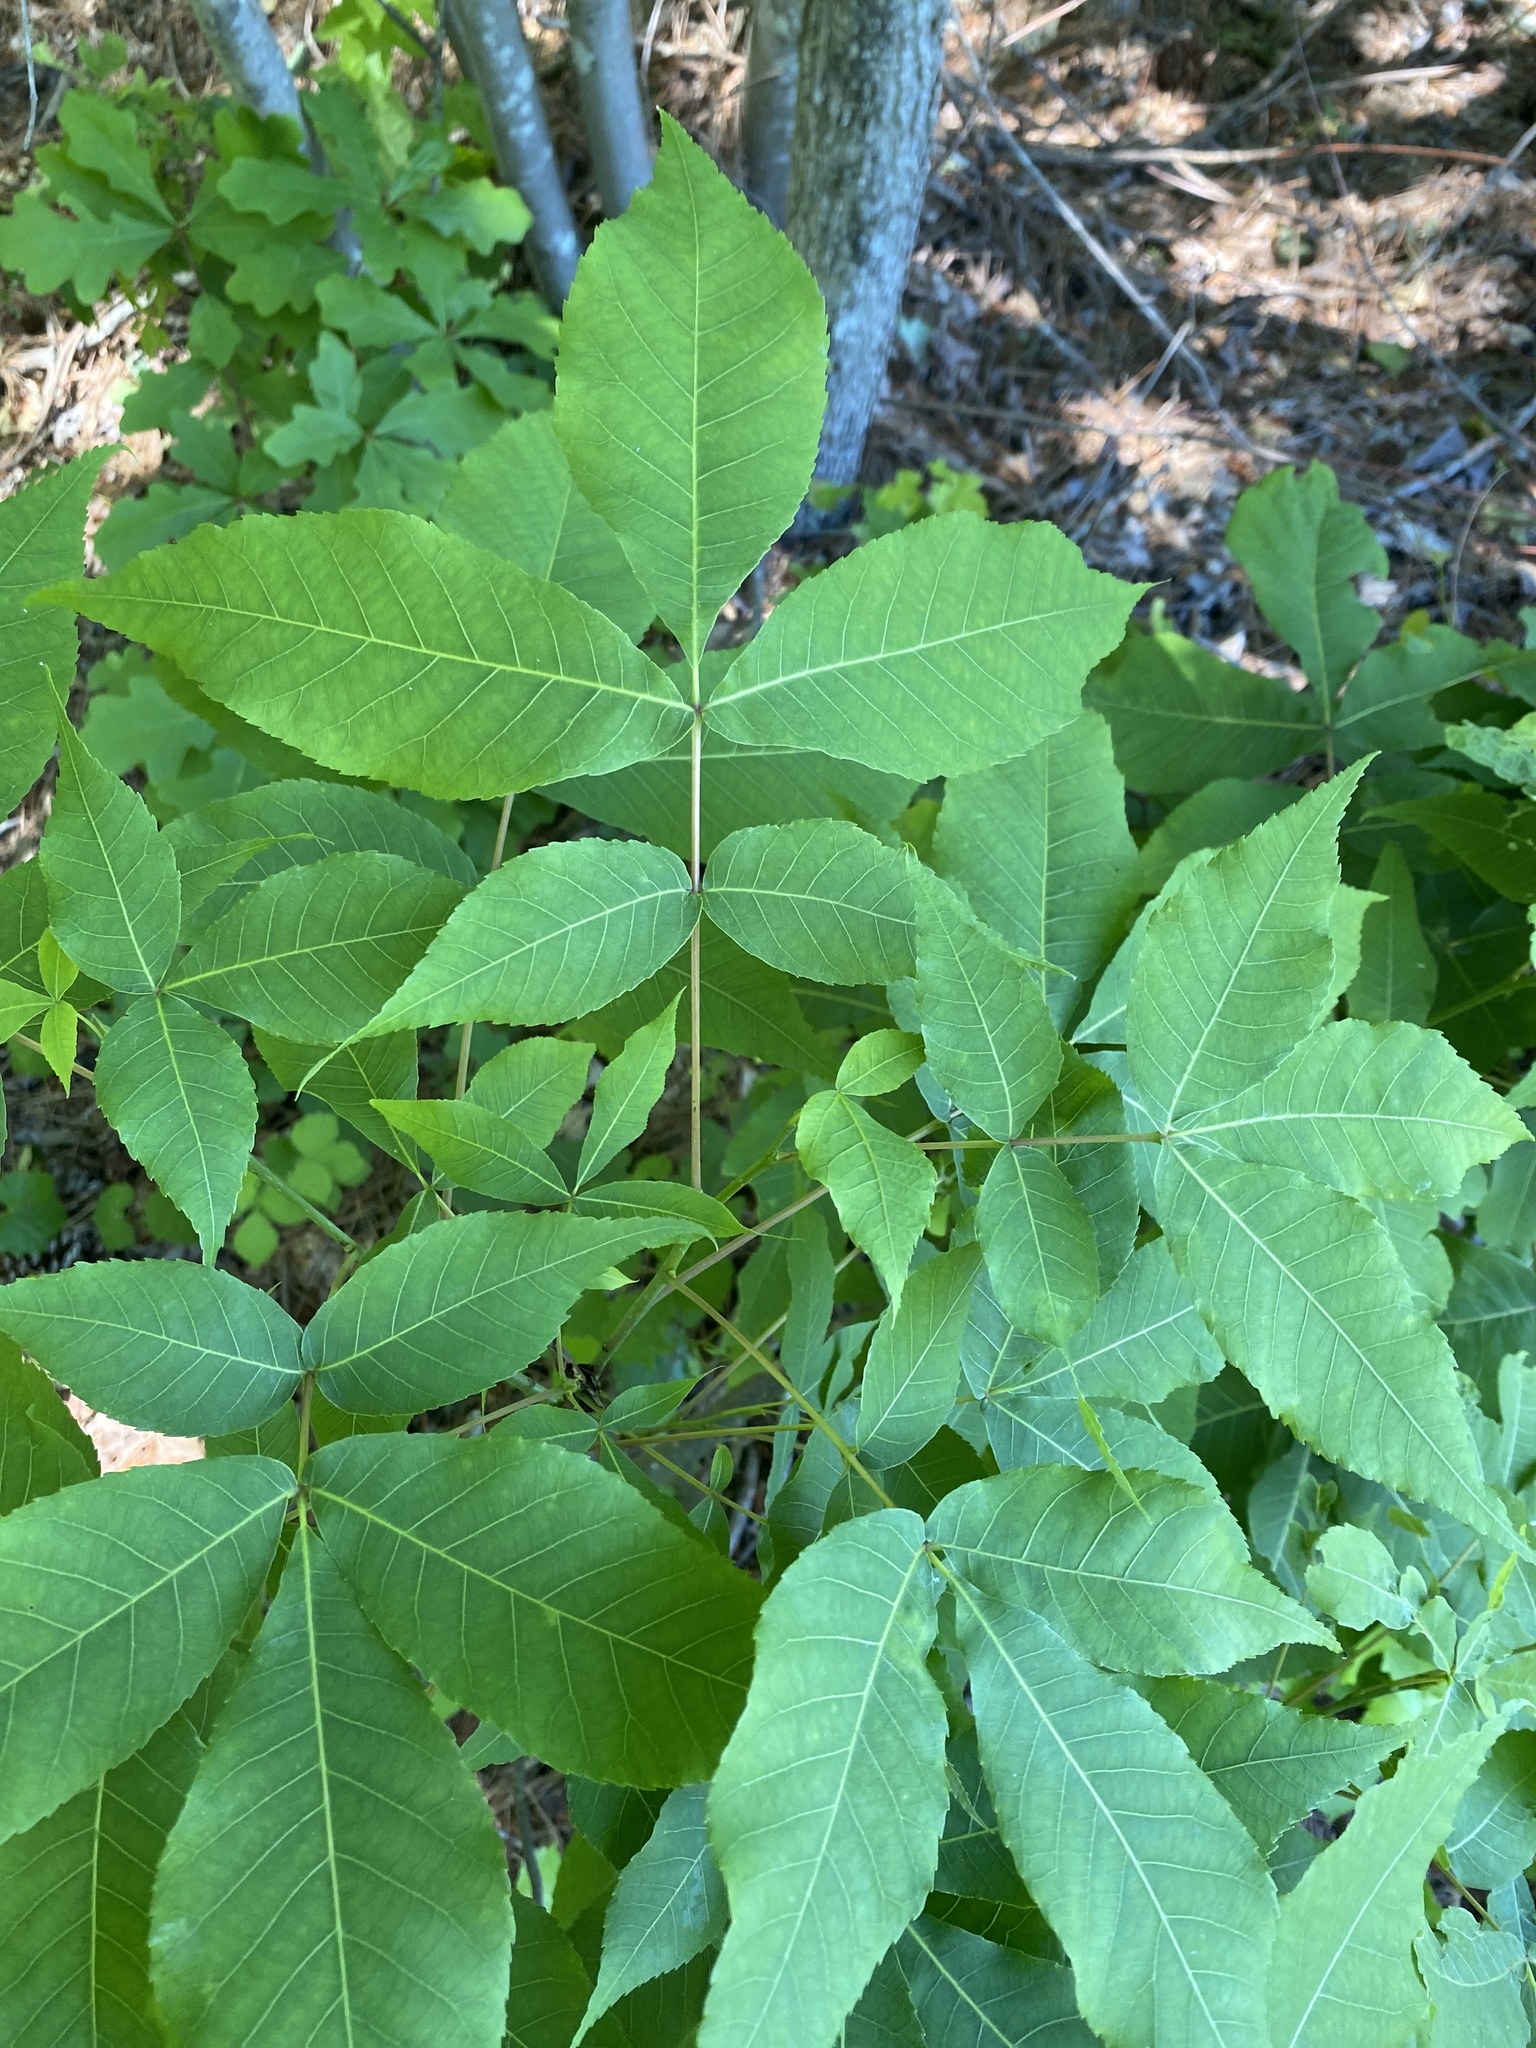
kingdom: Plantae
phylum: Tracheophyta
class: Magnoliopsida
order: Fagales
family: Juglandaceae
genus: Carya
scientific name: Carya glabra
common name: Pignut hickory
